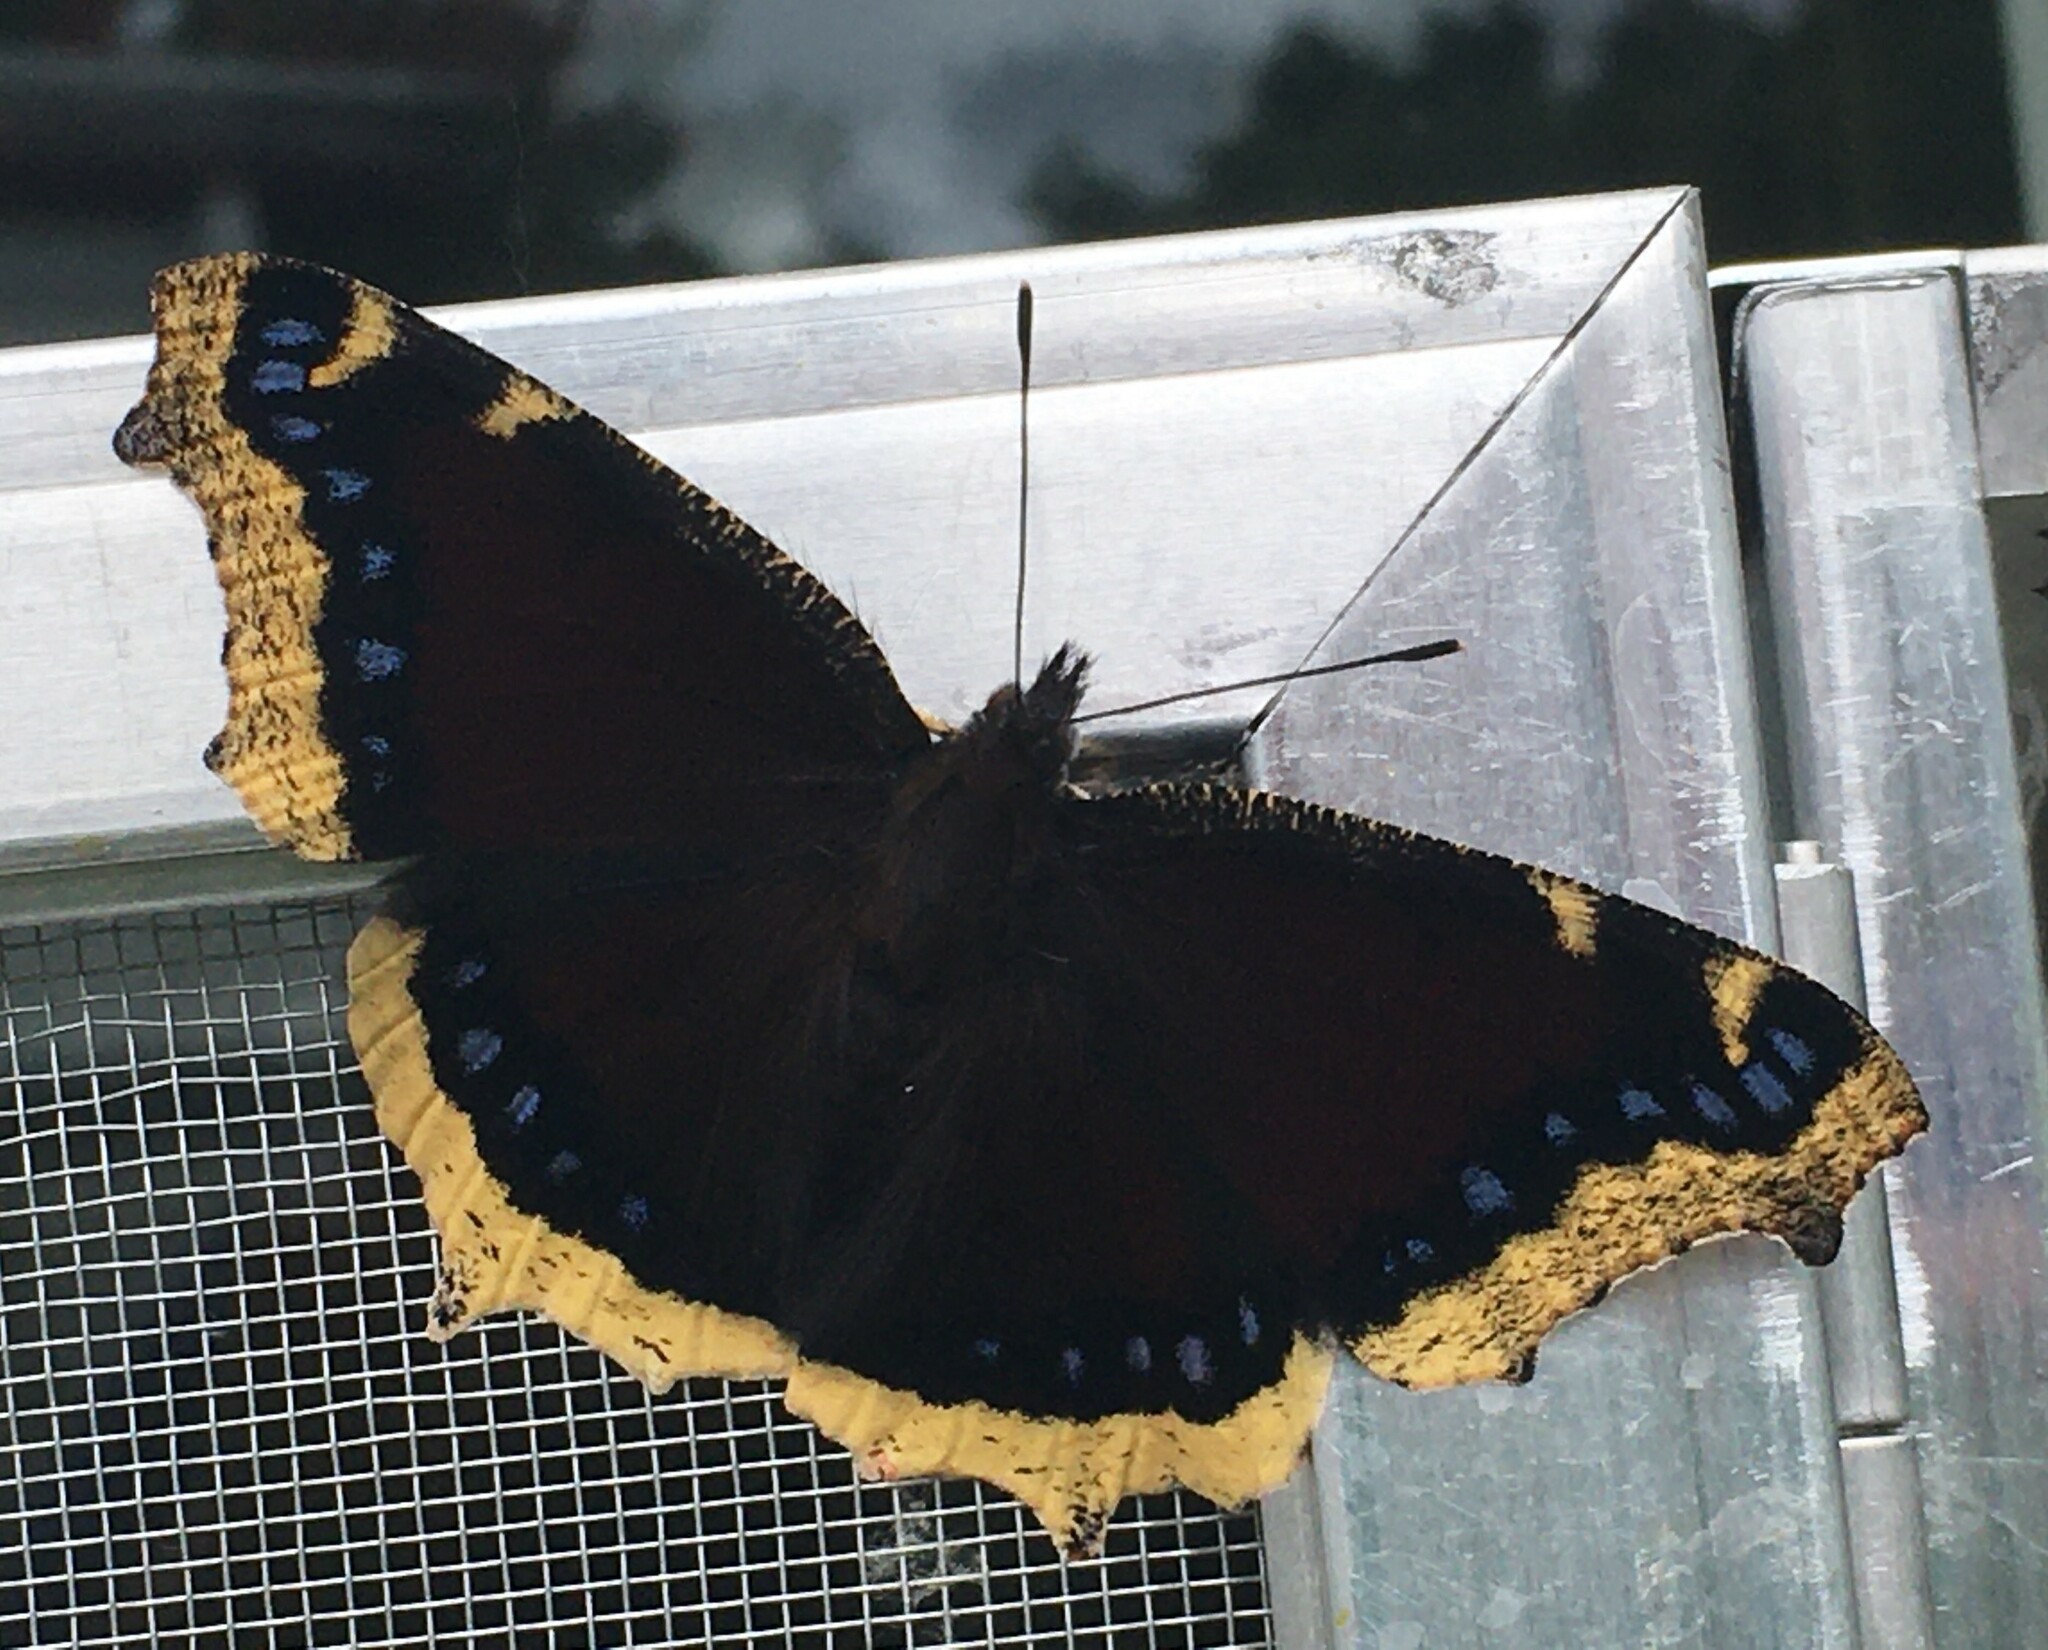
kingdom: Animalia
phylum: Arthropoda
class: Insecta
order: Lepidoptera
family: Nymphalidae
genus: Nymphalis
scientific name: Nymphalis antiopa
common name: Camberwell beauty
